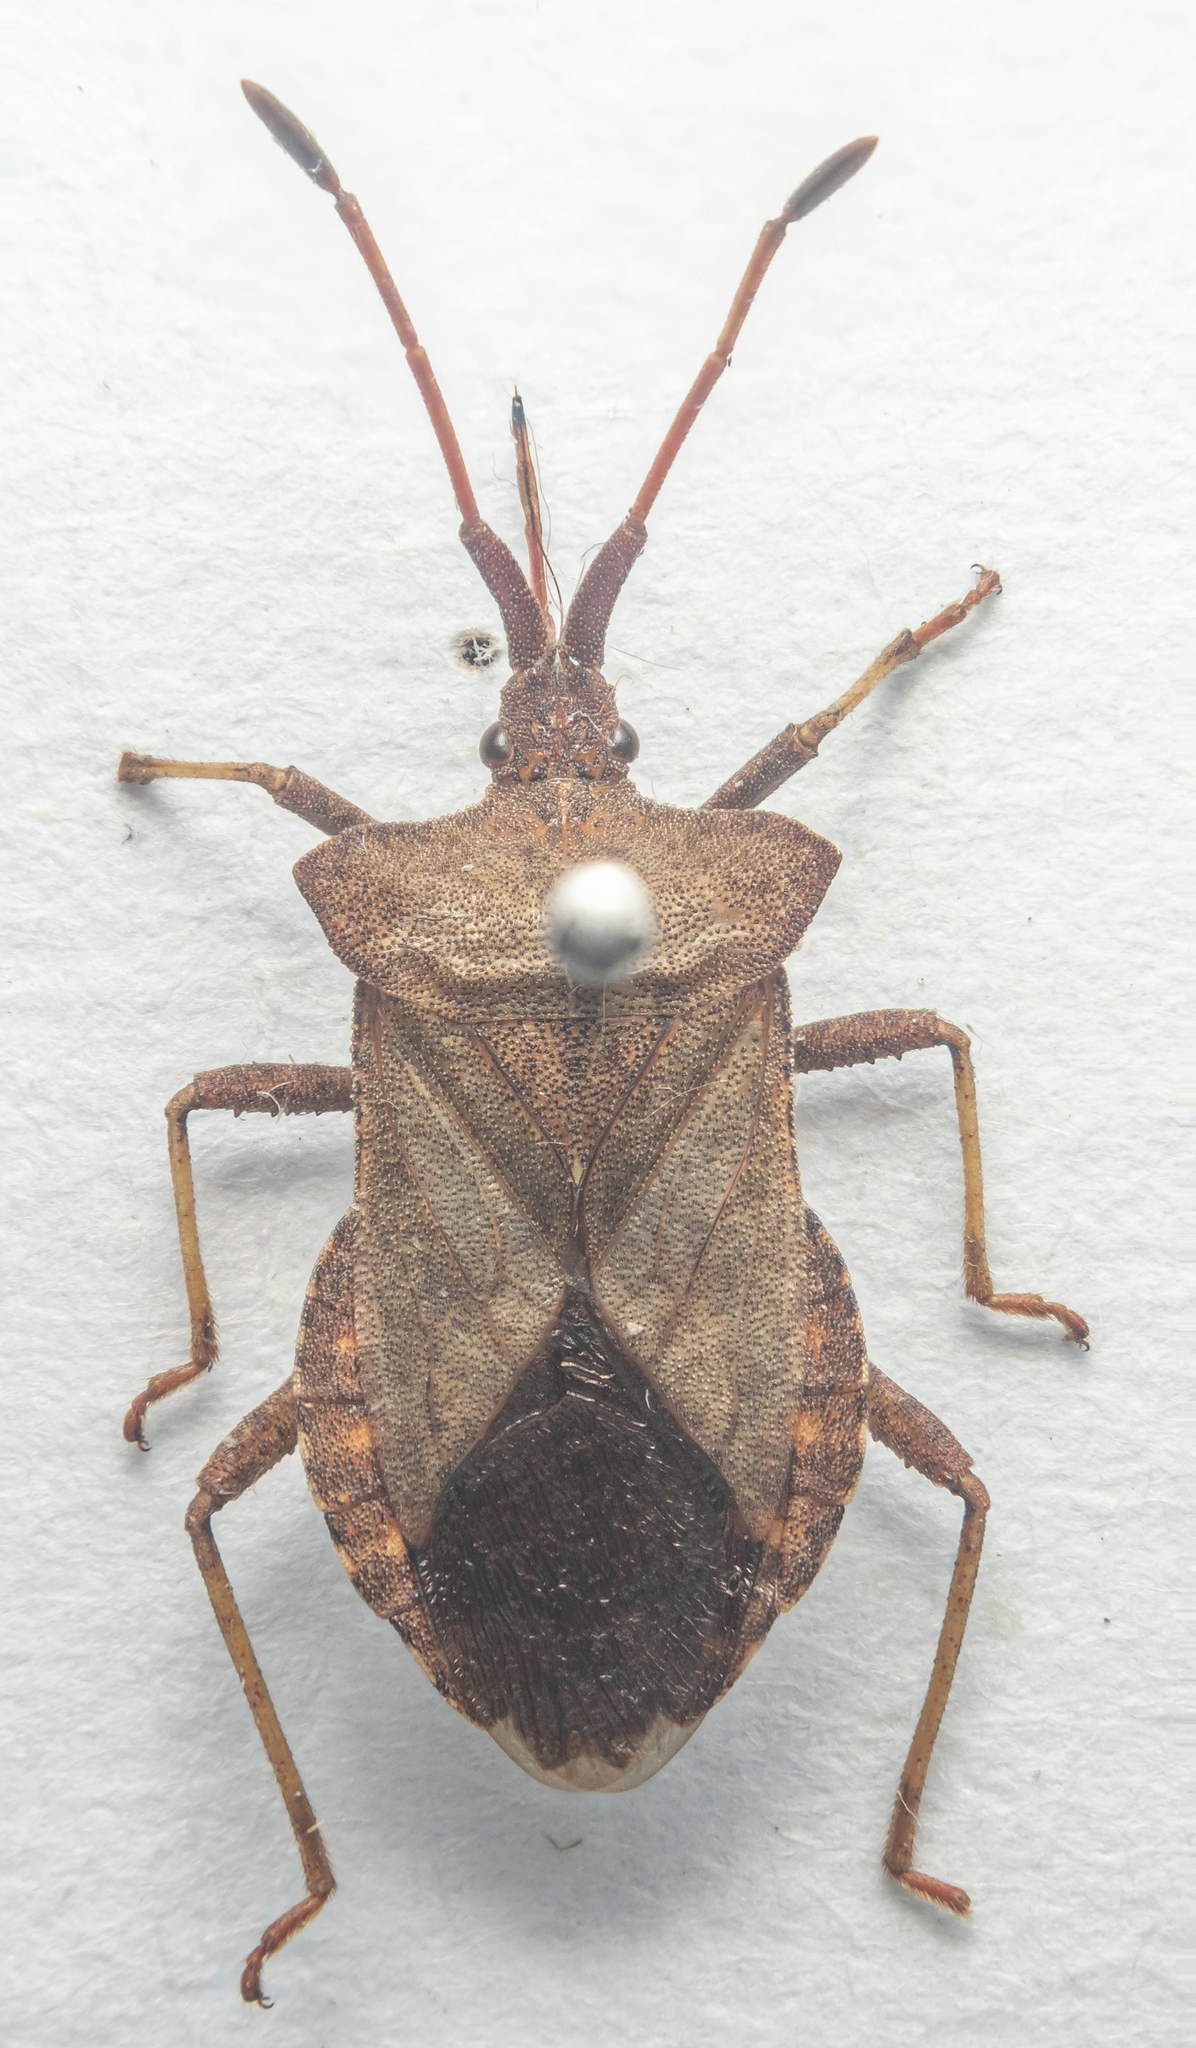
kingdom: Animalia
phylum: Arthropoda
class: Insecta
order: Hemiptera
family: Coreidae
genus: Coreus
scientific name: Coreus marginatus
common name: Dock bug
